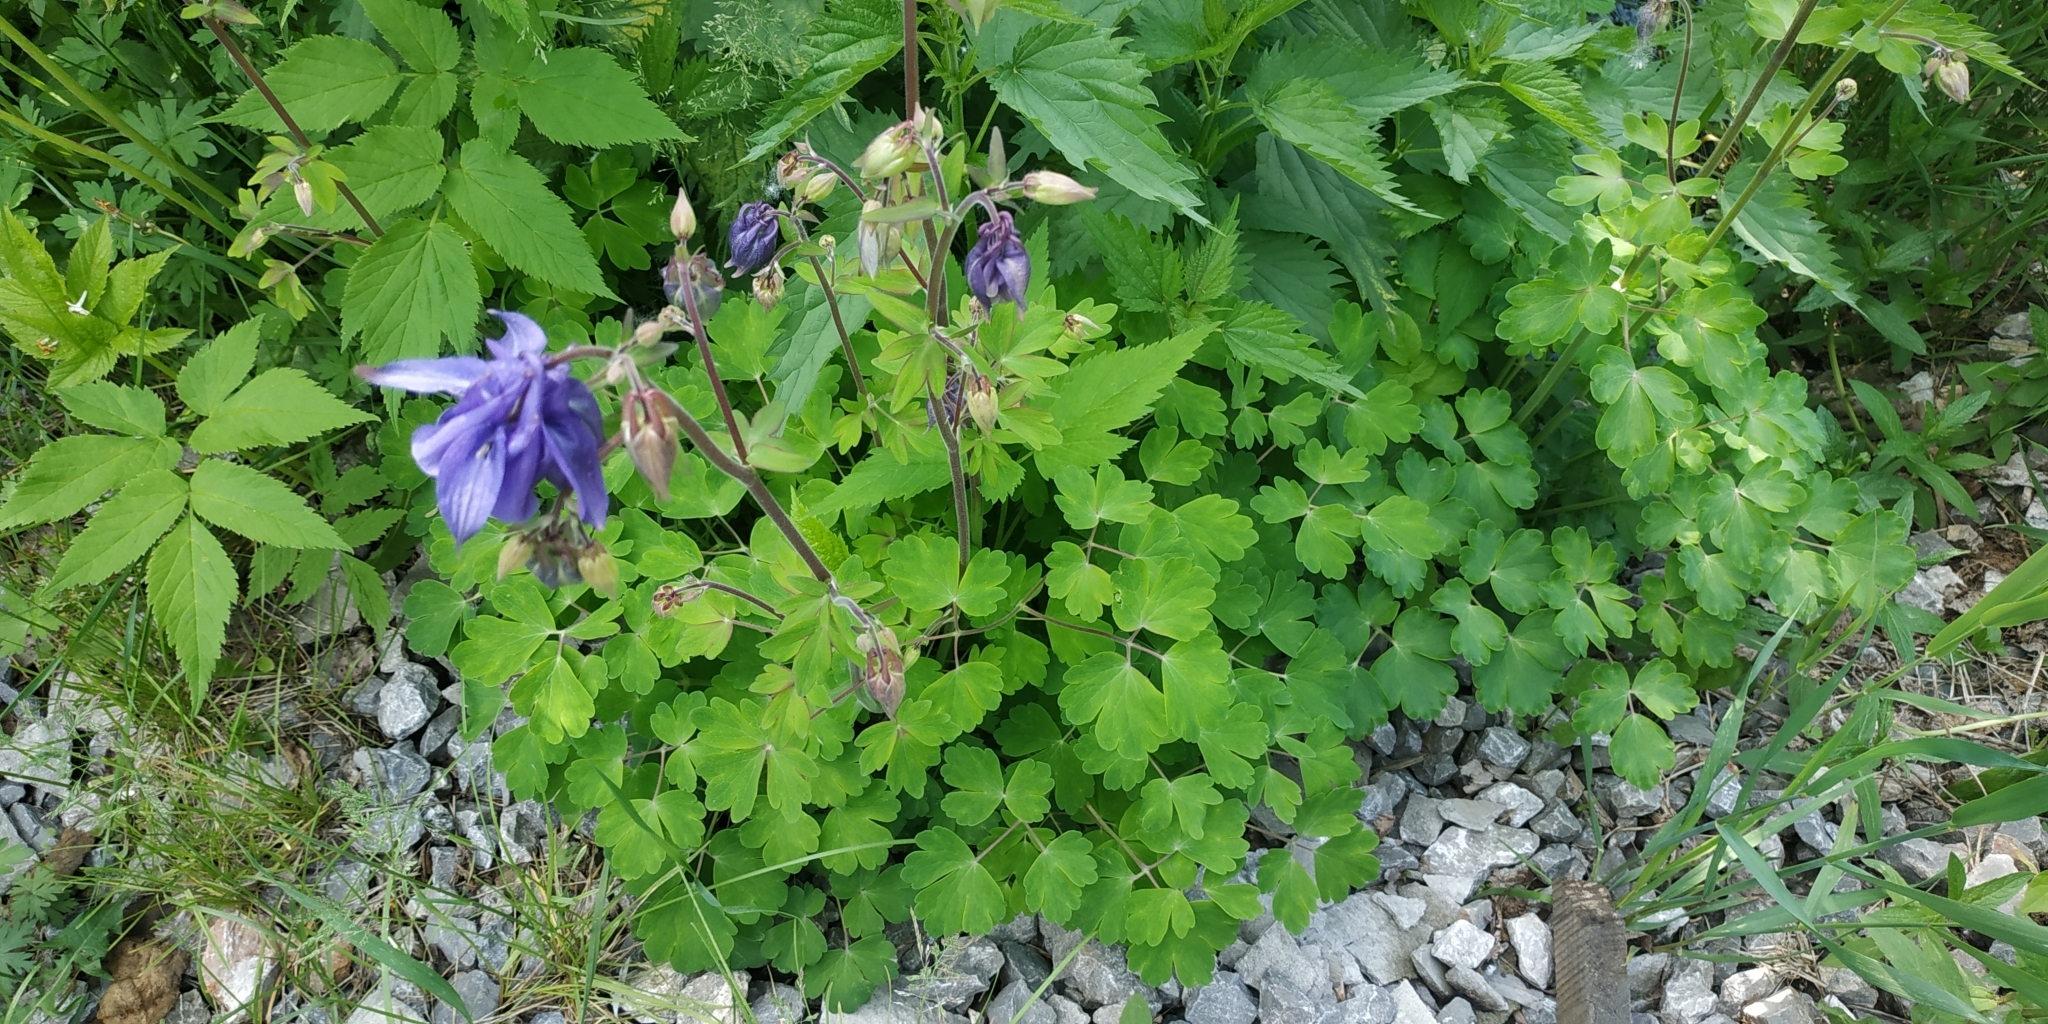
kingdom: Plantae
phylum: Tracheophyta
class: Magnoliopsida
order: Ranunculales
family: Ranunculaceae
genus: Aquilegia
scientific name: Aquilegia vulgaris
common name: Columbine
